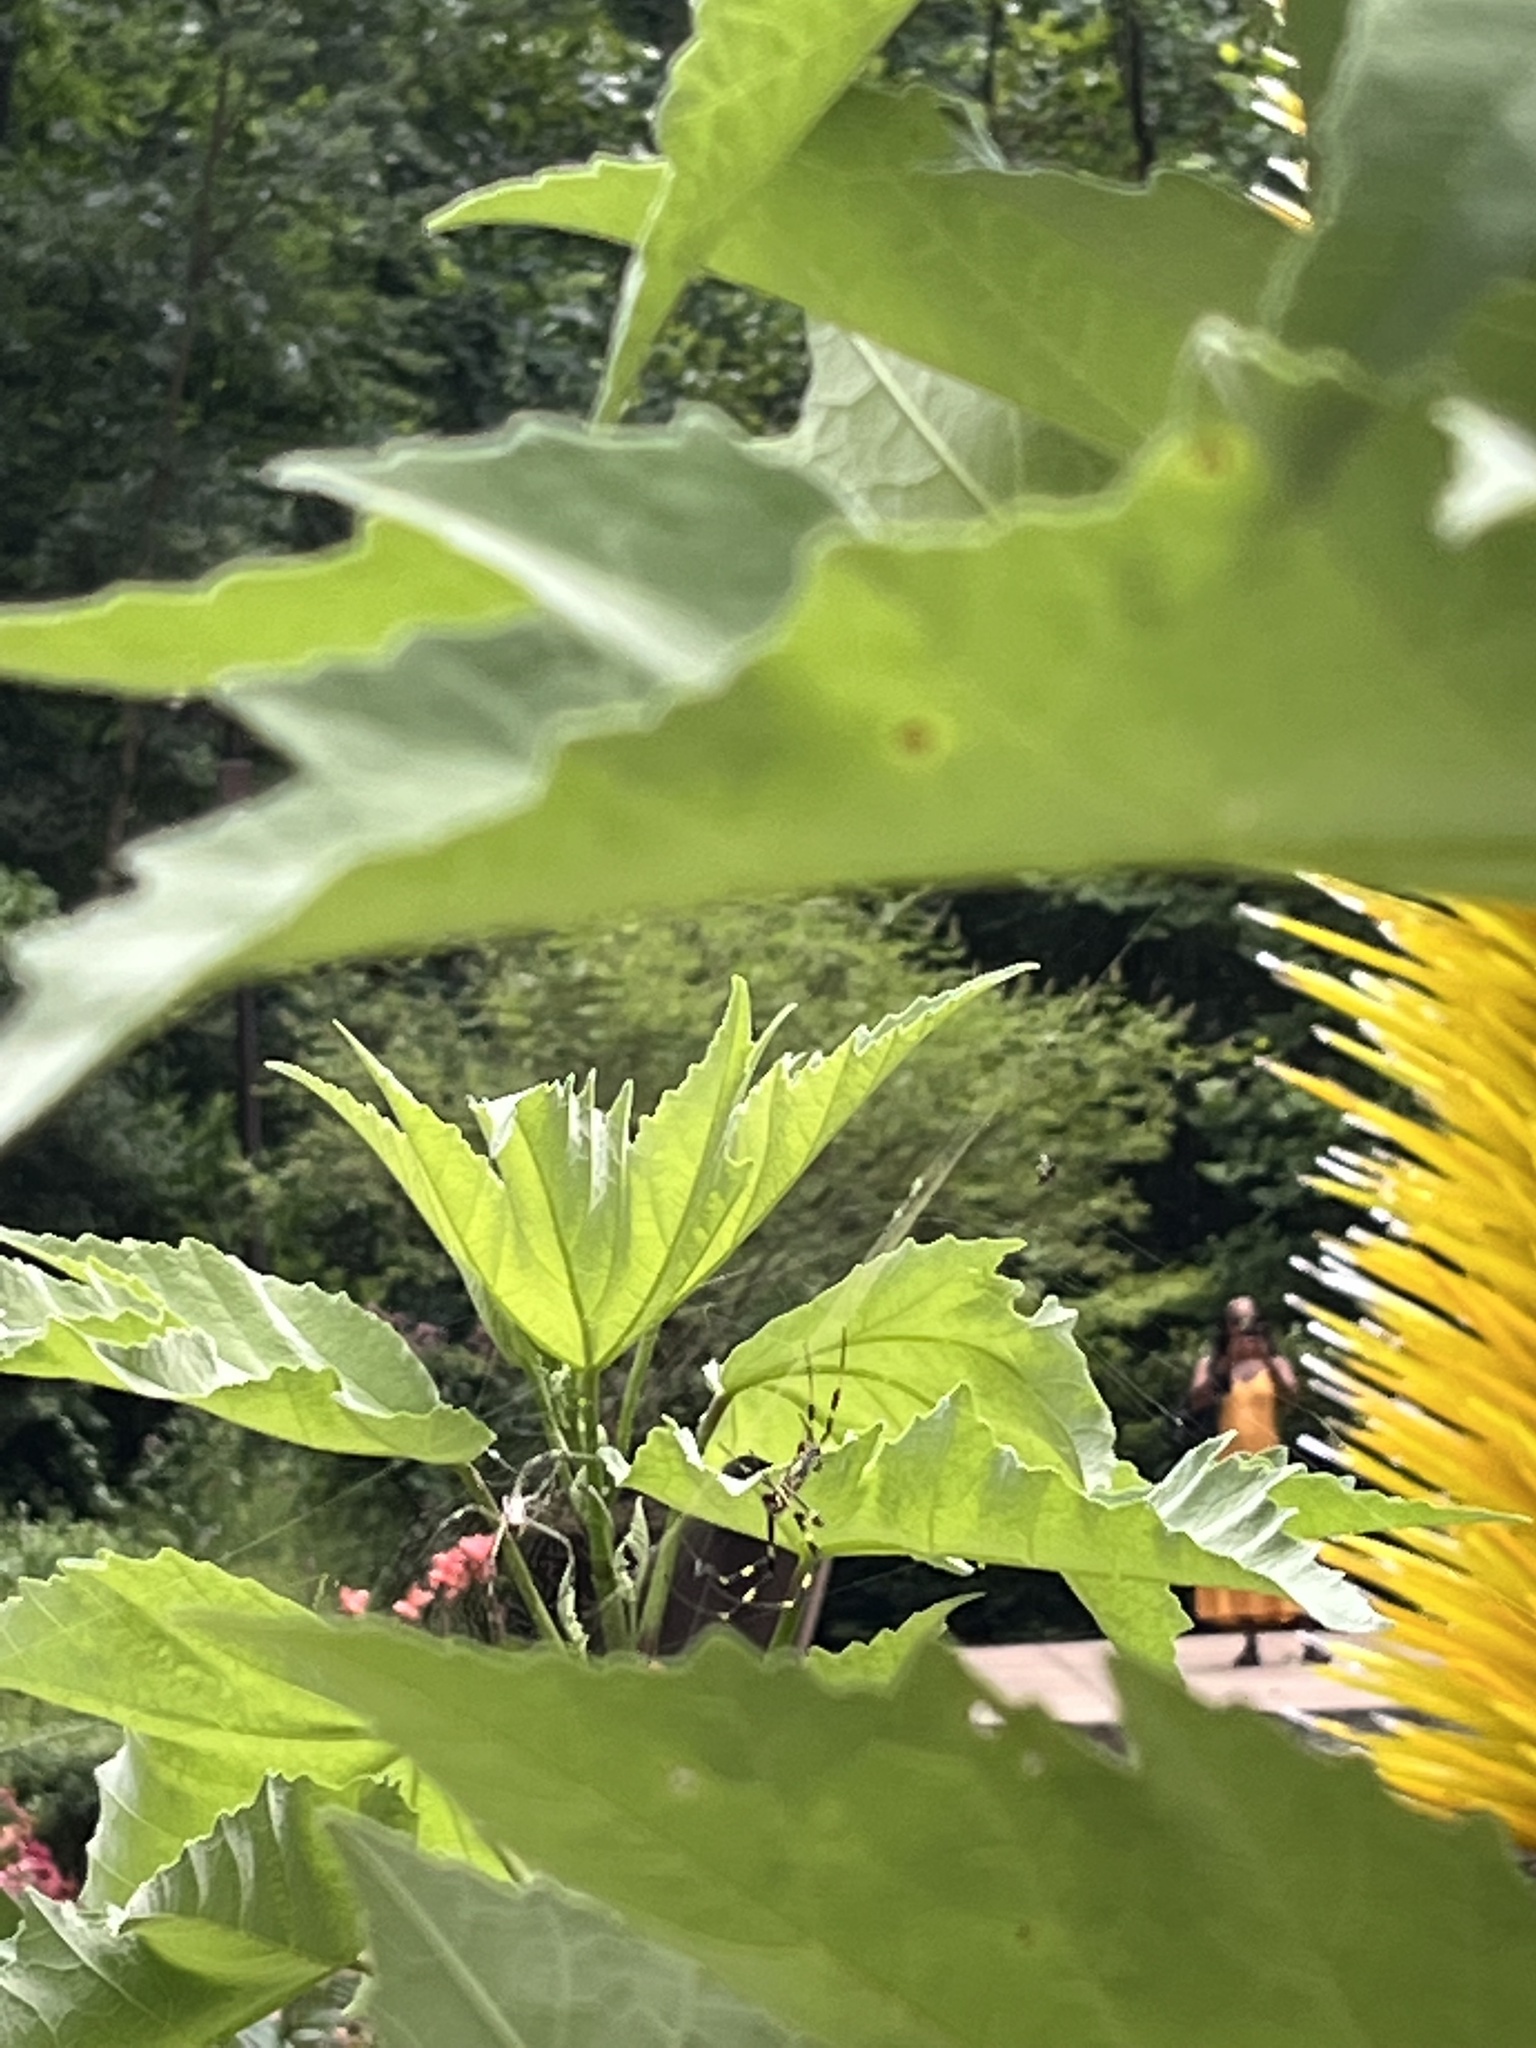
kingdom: Animalia
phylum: Arthropoda
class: Arachnida
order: Araneae
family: Araneidae
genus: Trichonephila
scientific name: Trichonephila clavata
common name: Jorō spider
